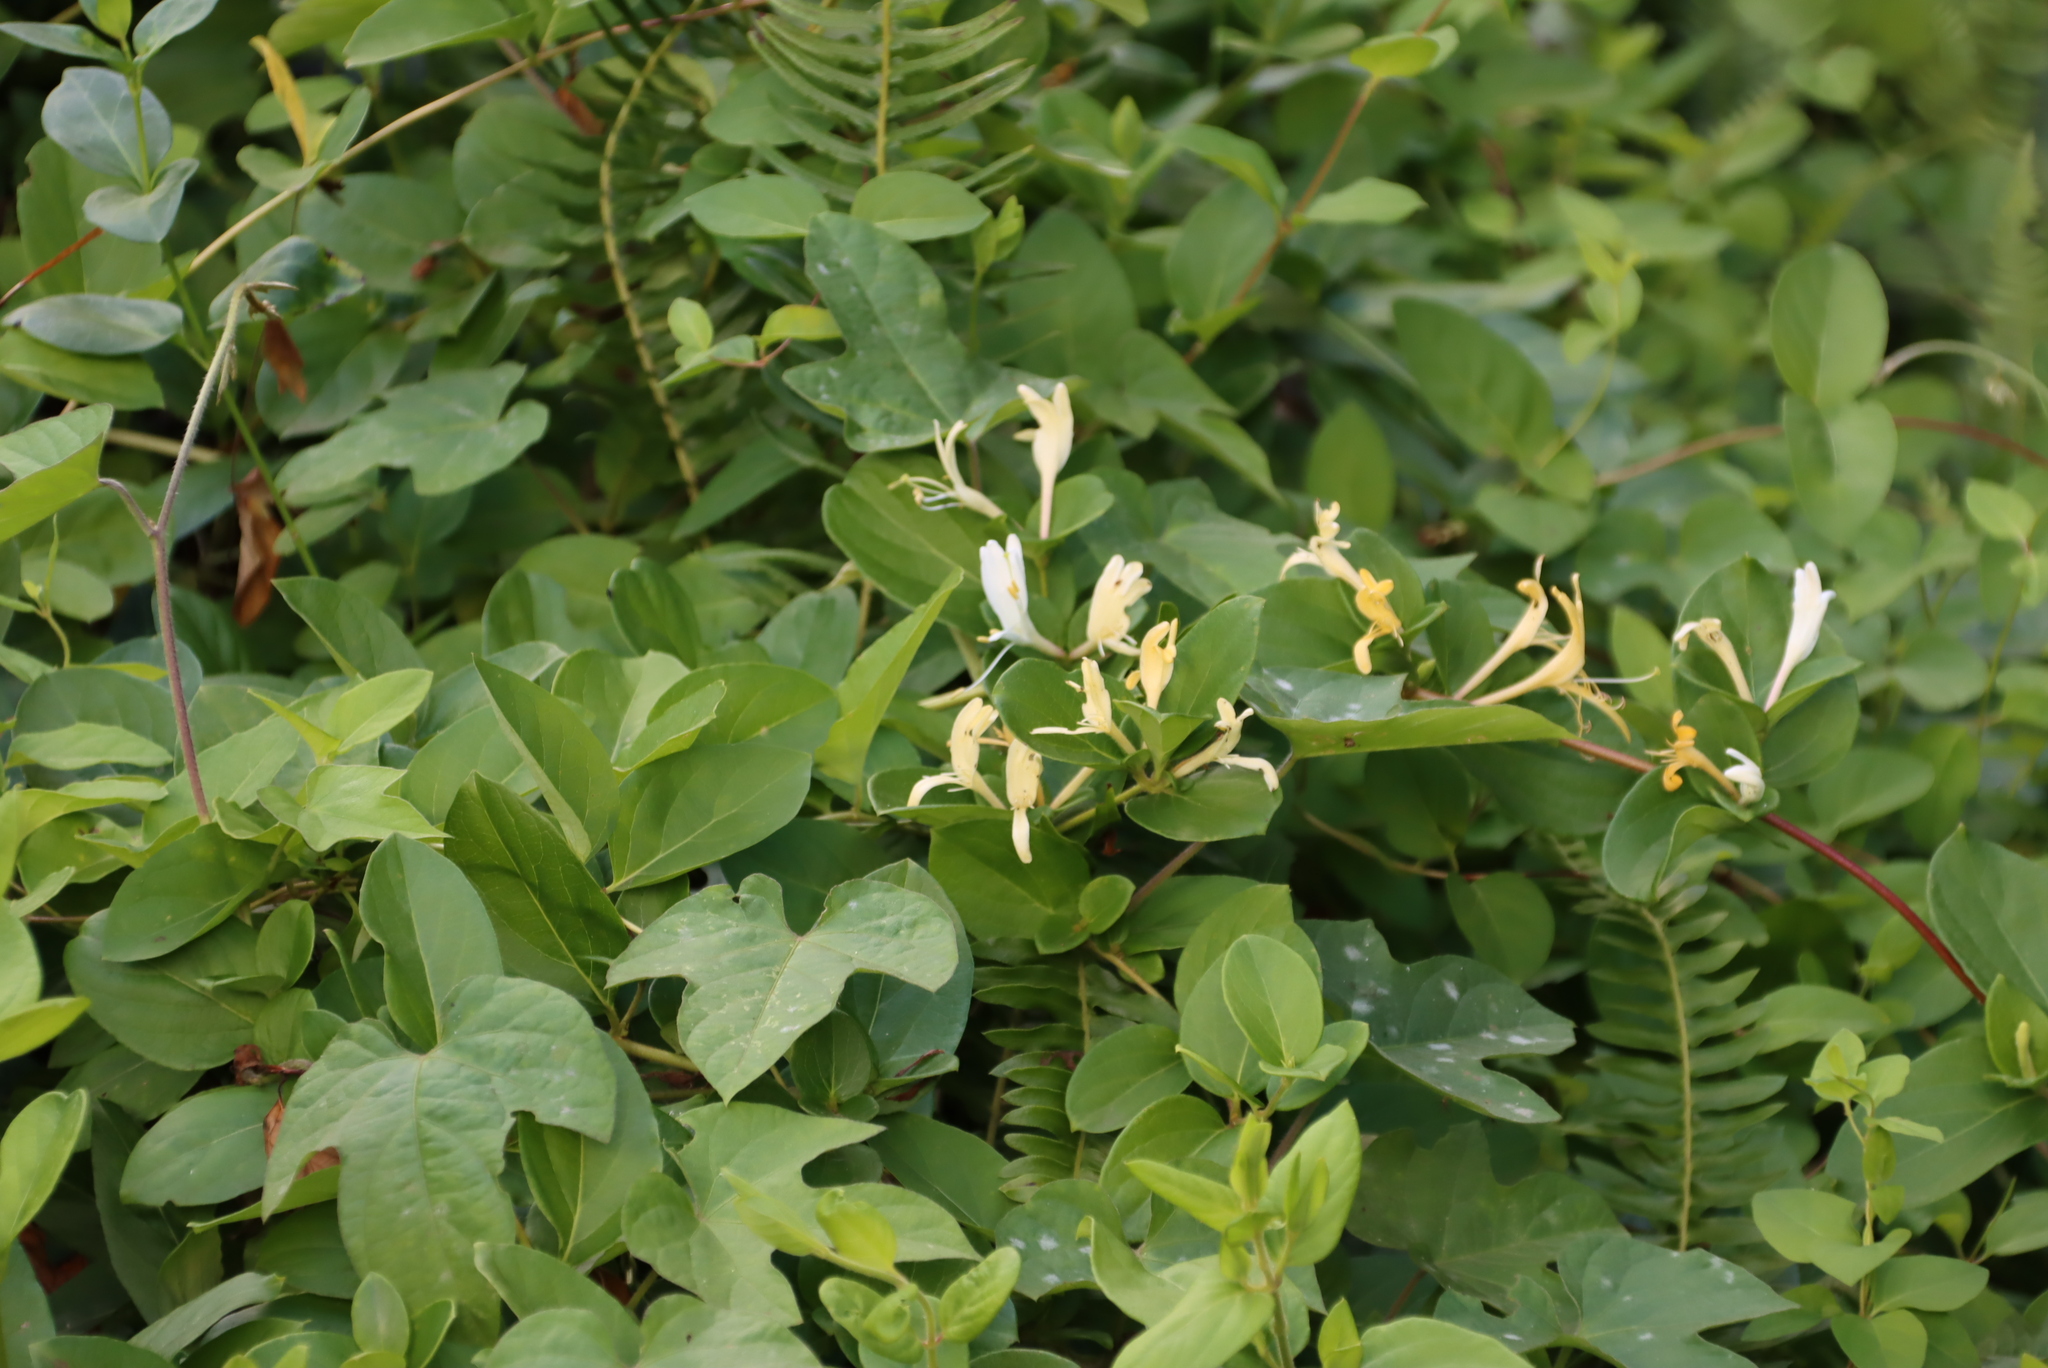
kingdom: Plantae
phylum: Tracheophyta
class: Magnoliopsida
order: Dipsacales
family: Caprifoliaceae
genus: Lonicera
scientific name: Lonicera japonica
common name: Japanese honeysuckle
